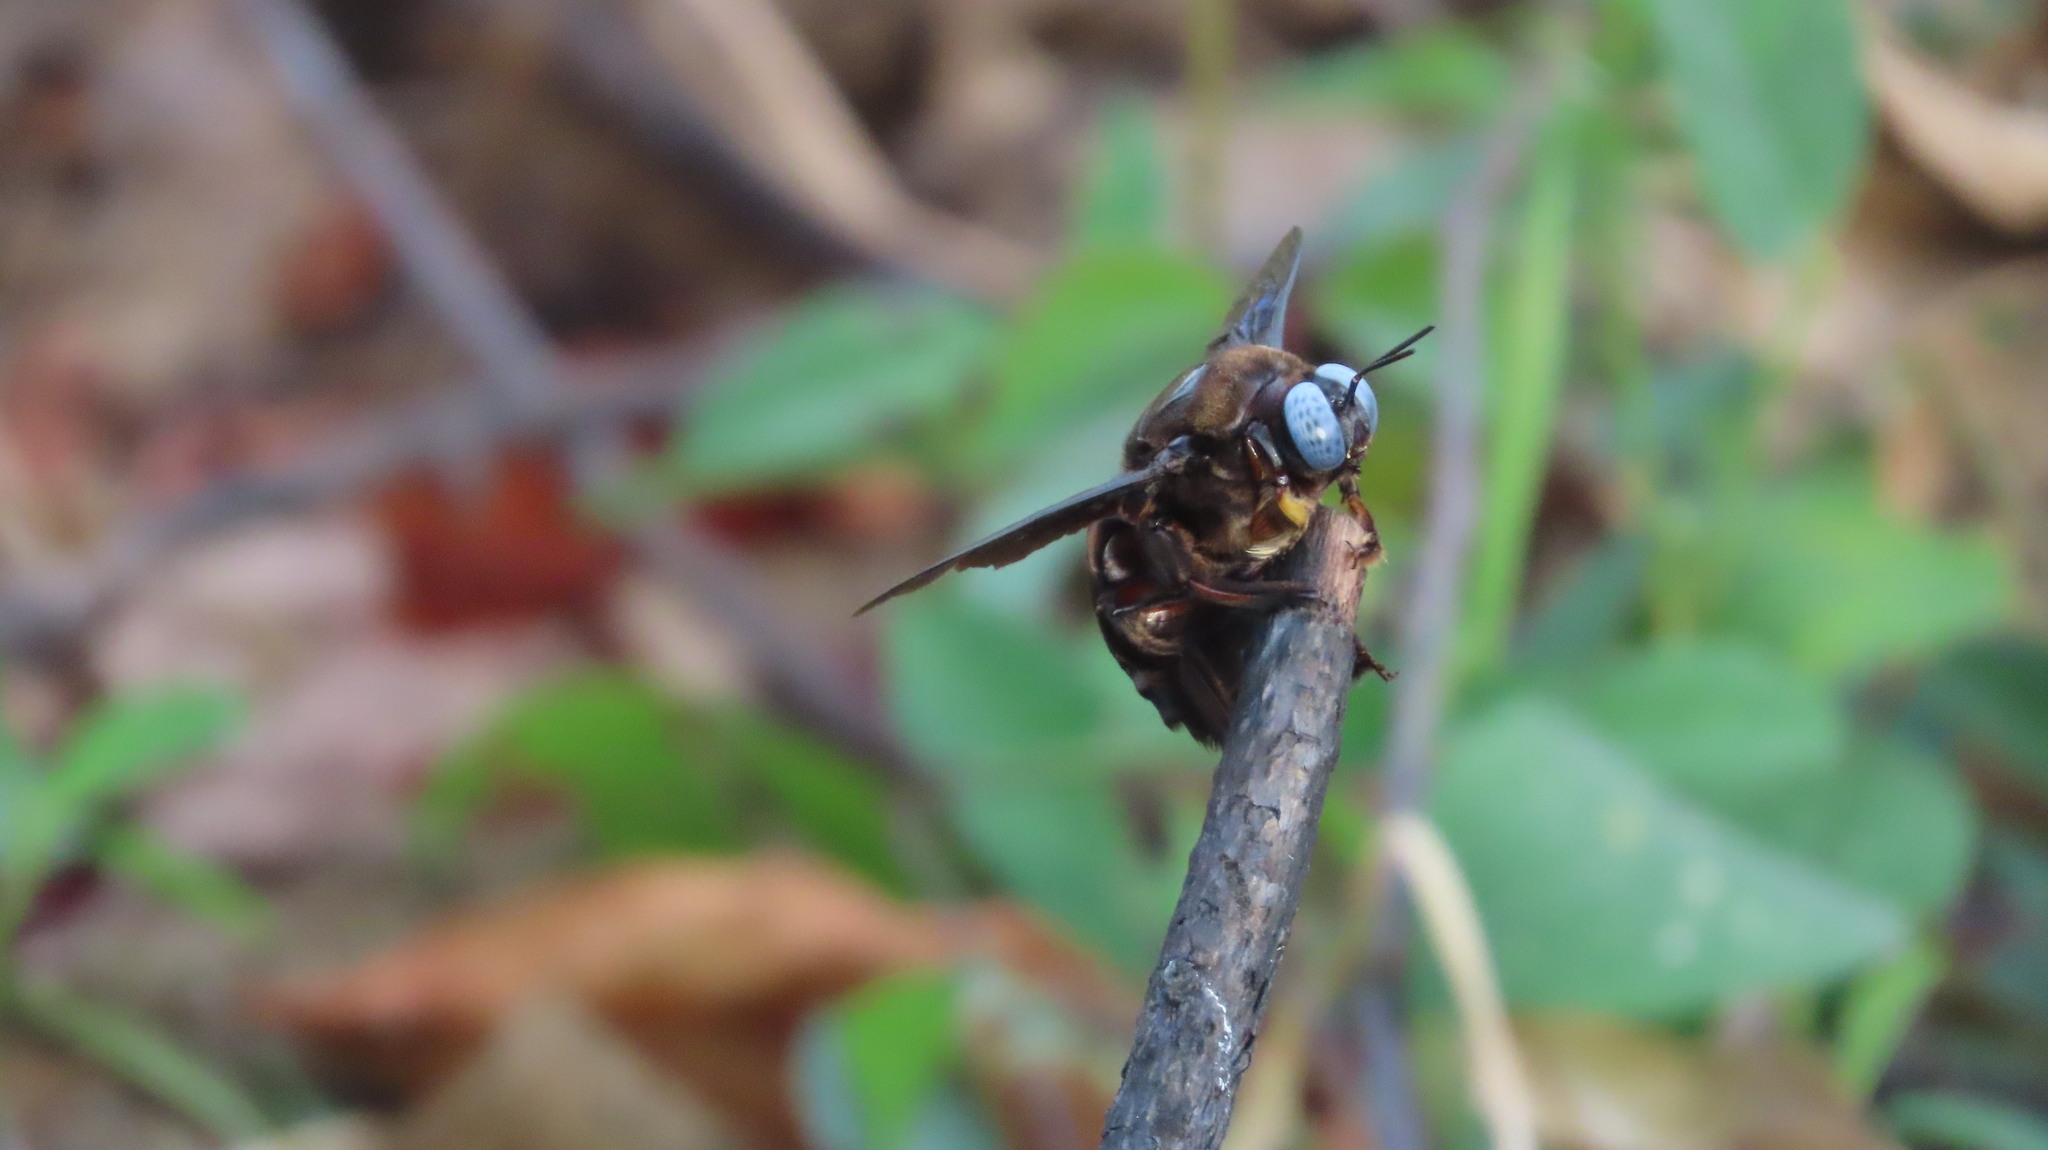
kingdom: Animalia
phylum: Arthropoda
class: Insecta
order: Hymenoptera
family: Apidae
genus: Xylocopa
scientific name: Xylocopa tenuiscapa
